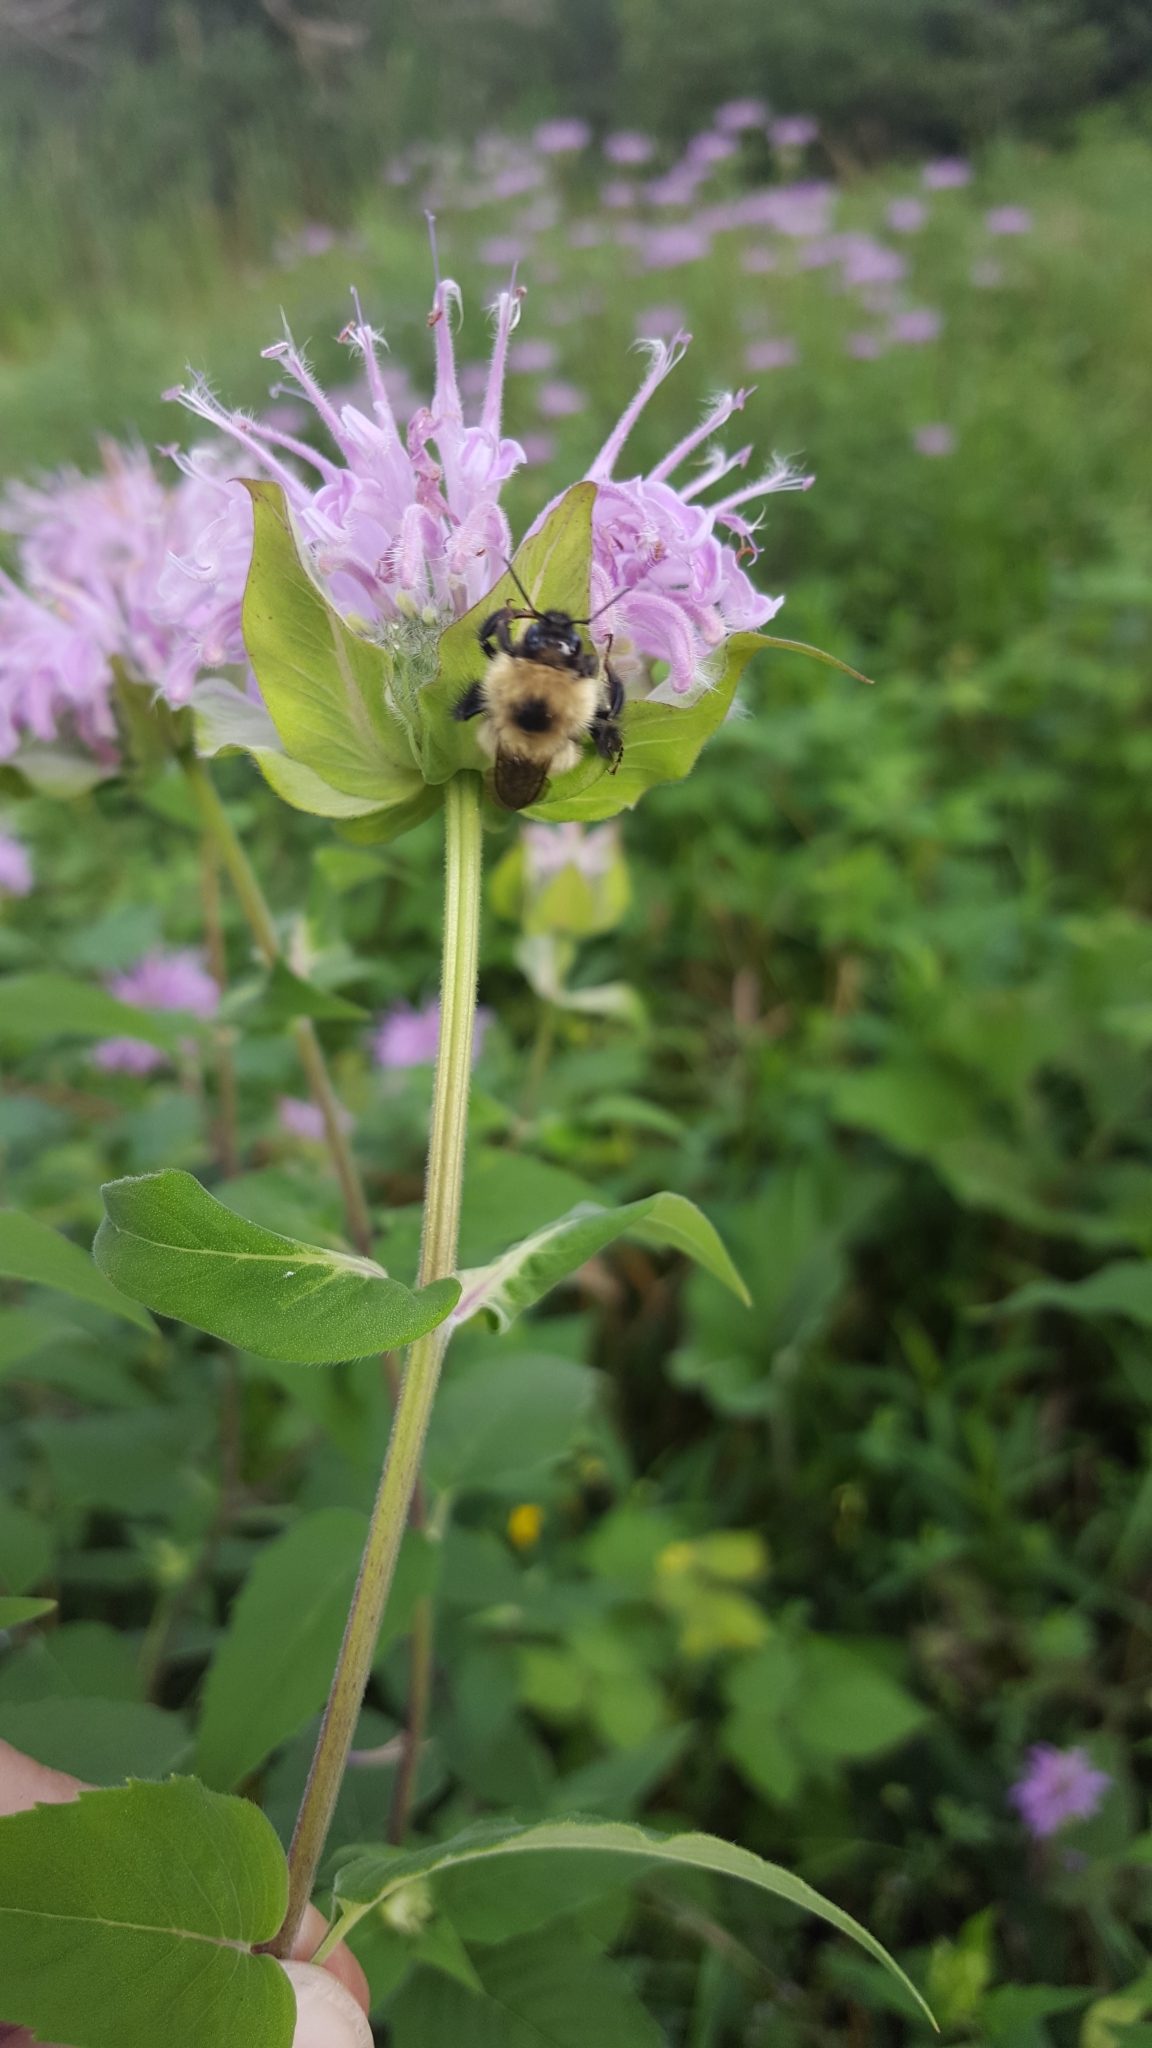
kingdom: Animalia
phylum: Arthropoda
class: Insecta
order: Hymenoptera
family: Apidae
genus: Bombus
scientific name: Bombus vagans
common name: Half-black bumble bee
